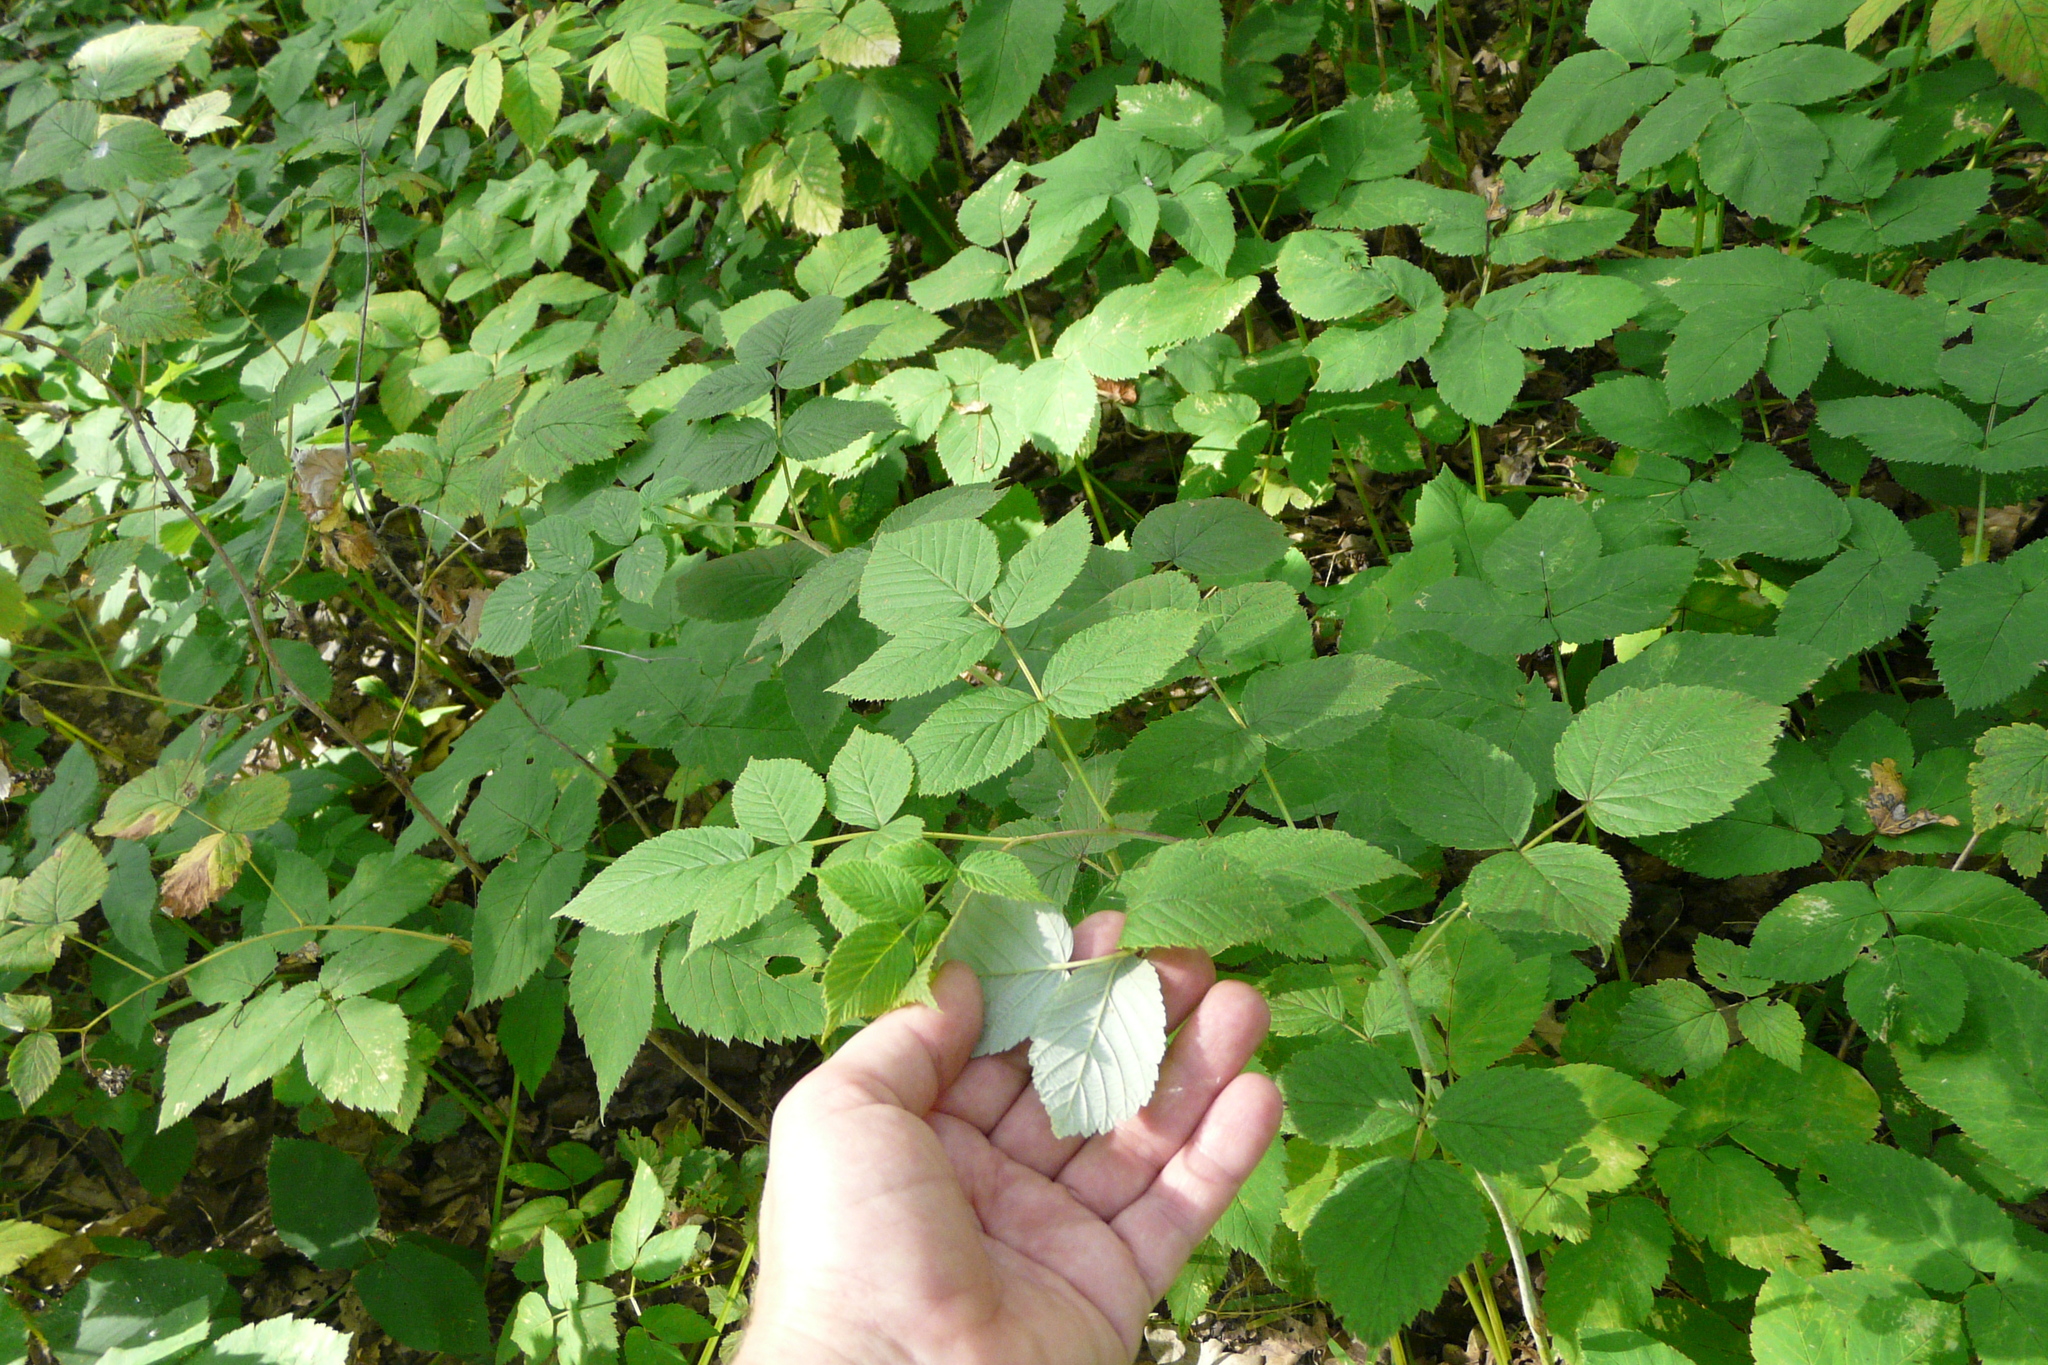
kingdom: Plantae
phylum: Tracheophyta
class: Magnoliopsida
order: Rosales
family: Rosaceae
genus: Rubus
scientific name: Rubus idaeus
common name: Raspberry
